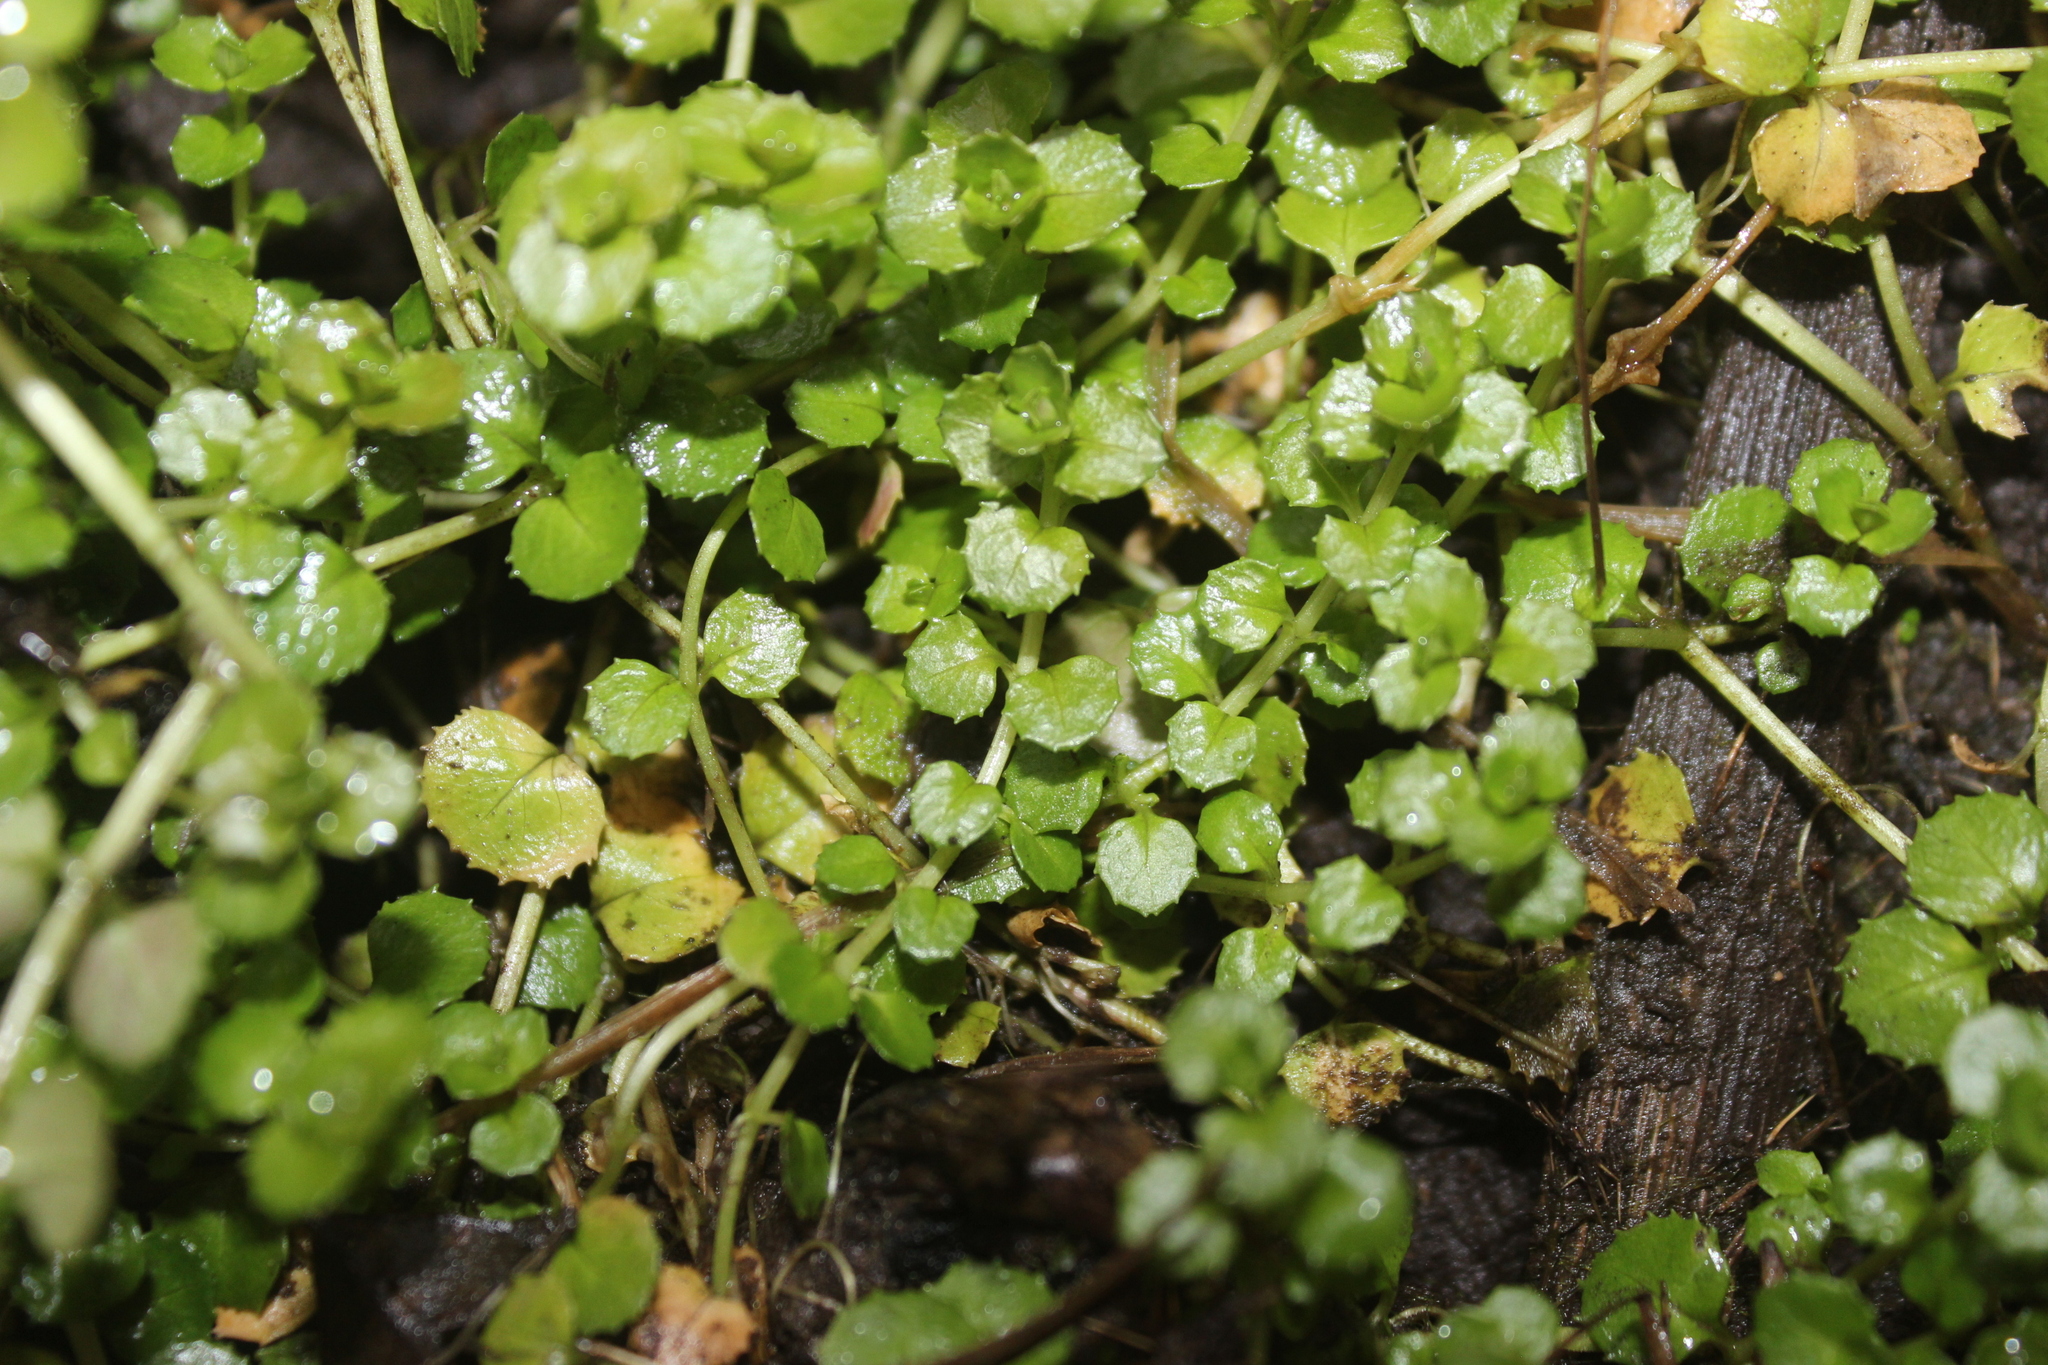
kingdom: Plantae
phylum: Tracheophyta
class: Magnoliopsida
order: Asterales
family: Campanulaceae
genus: Lobelia
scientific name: Lobelia angulata
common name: Lawn lobelia
